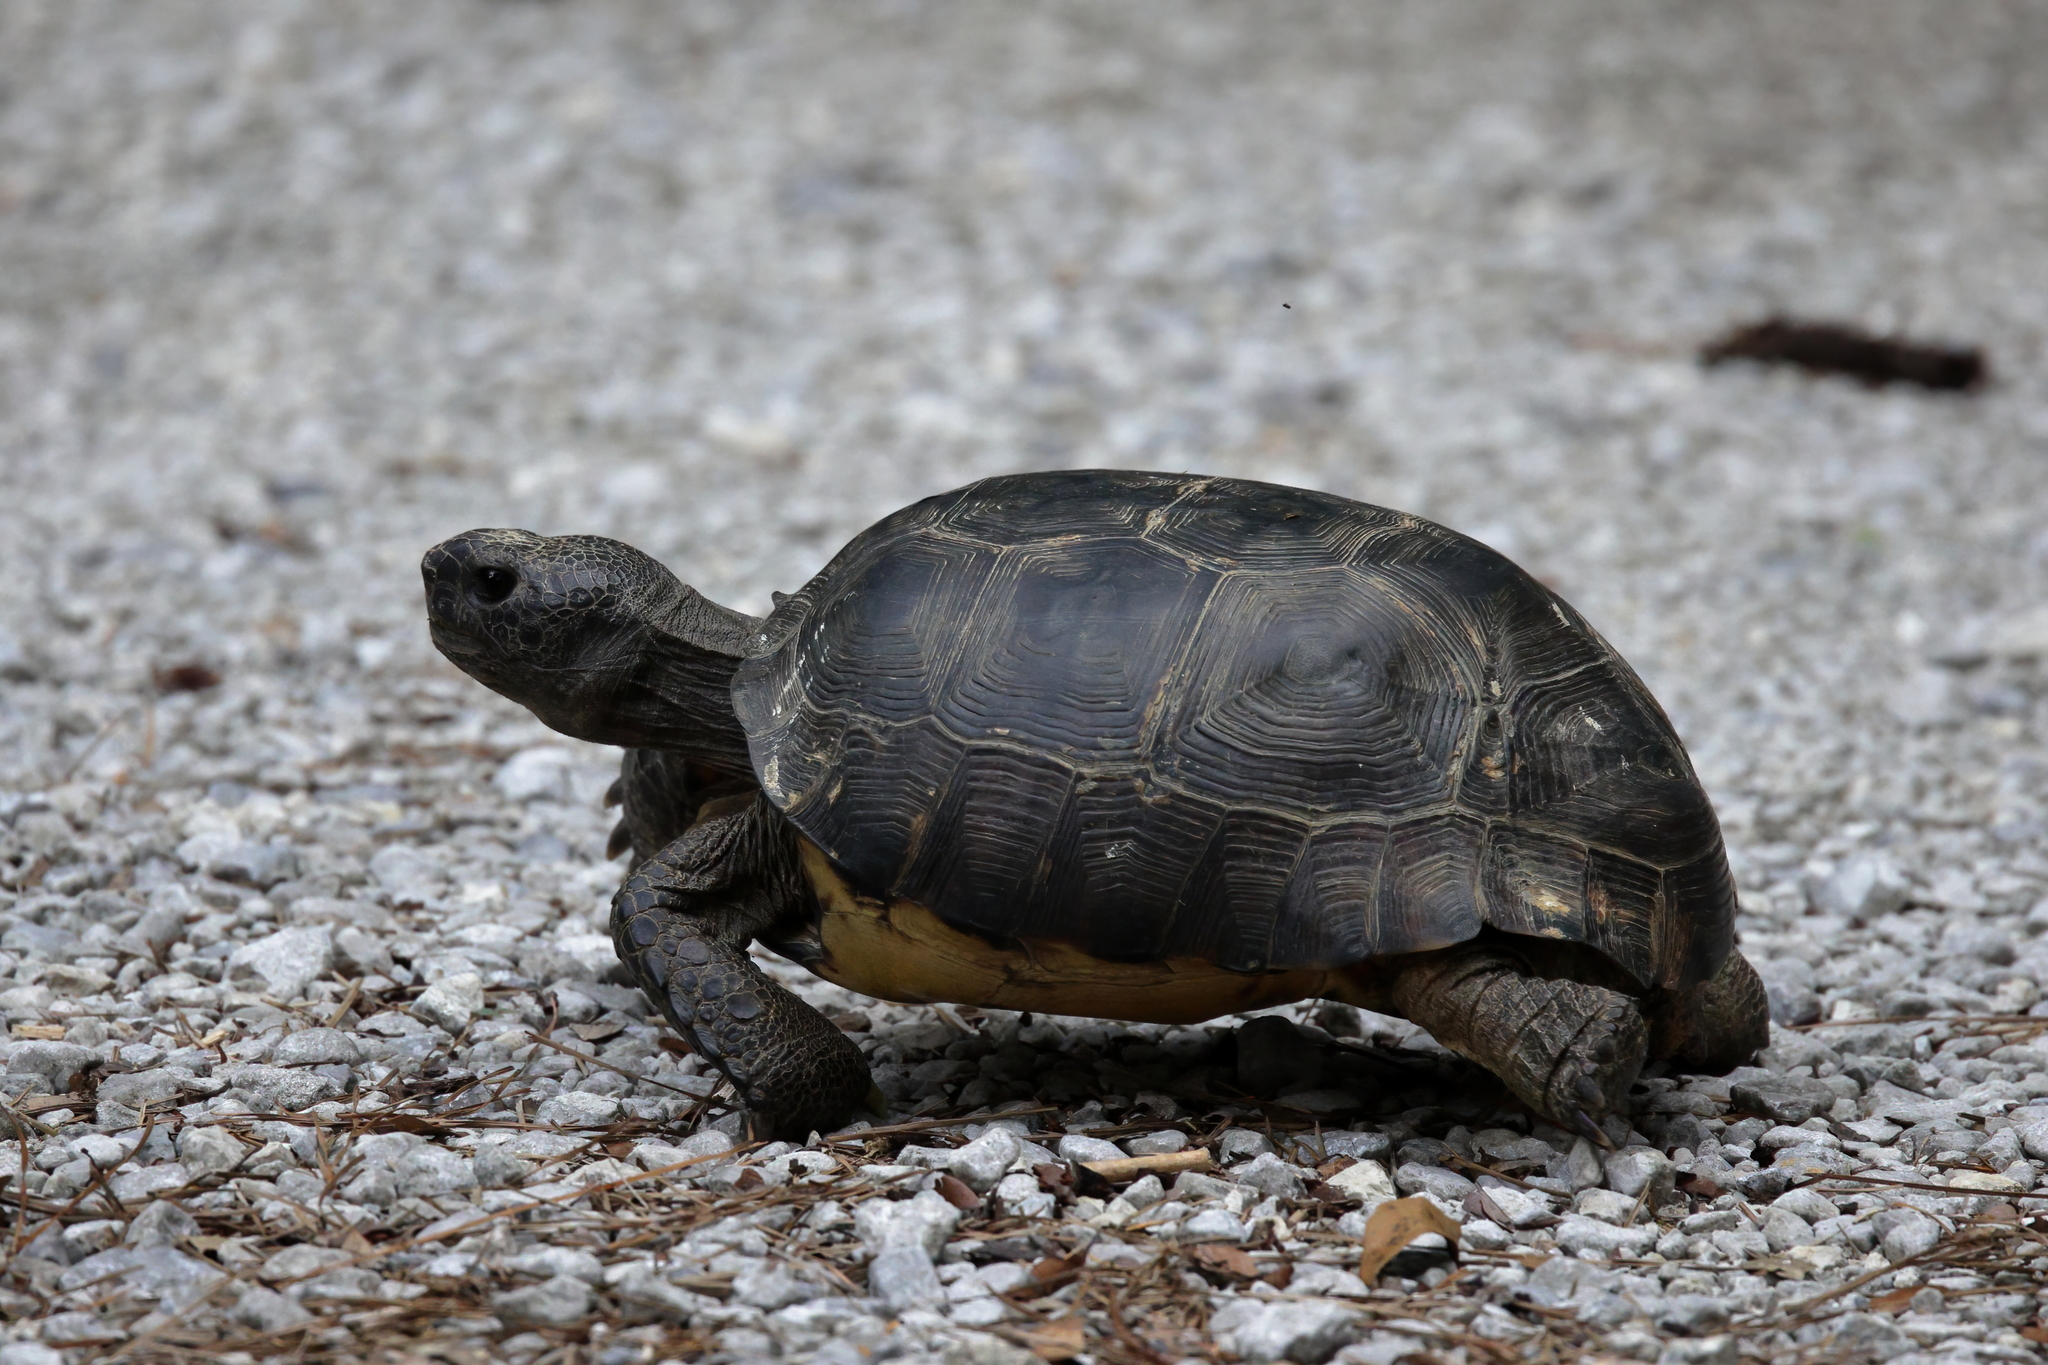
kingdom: Animalia
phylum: Chordata
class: Testudines
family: Testudinidae
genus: Gopherus
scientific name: Gopherus polyphemus
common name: Florida gopher tortoise
